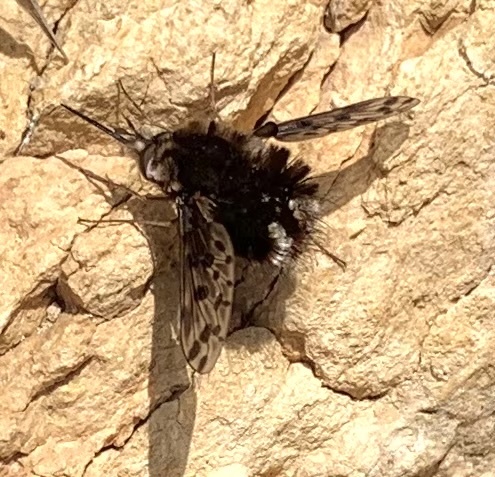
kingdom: Animalia
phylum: Arthropoda
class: Insecta
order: Diptera
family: Bombyliidae
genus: Triplasius
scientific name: Triplasius pictus
